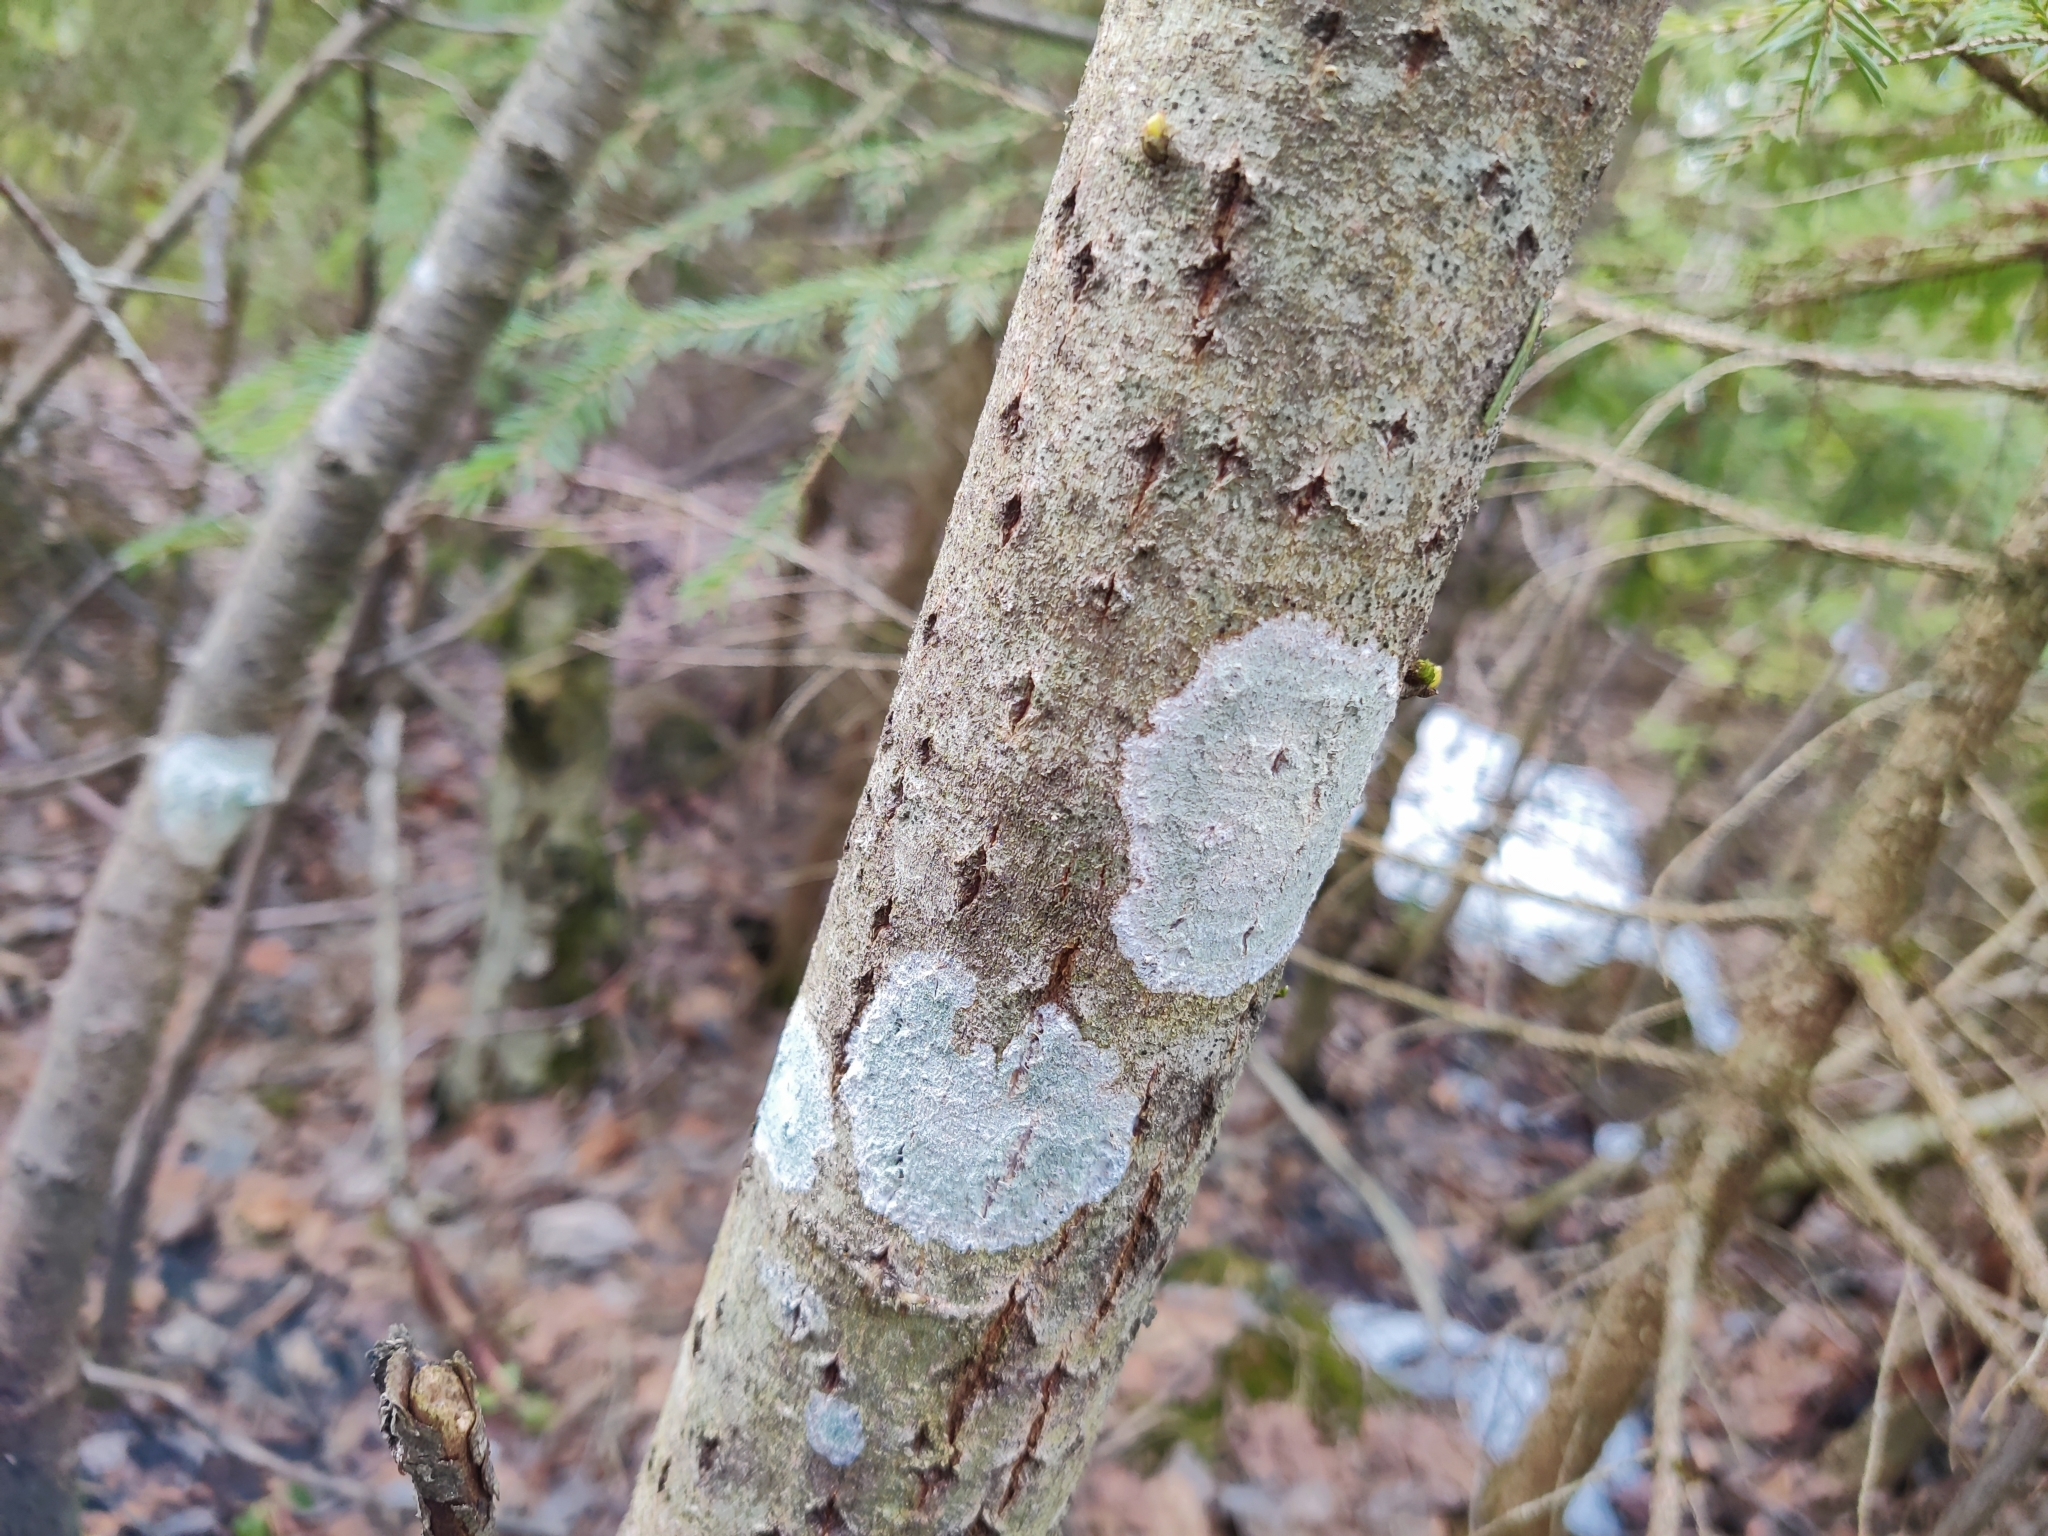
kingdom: Fungi
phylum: Ascomycota
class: Lecanoromycetes
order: Ostropales
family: Phlyctidaceae
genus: Phlyctis
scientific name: Phlyctis argena
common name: Whitewash lichen
